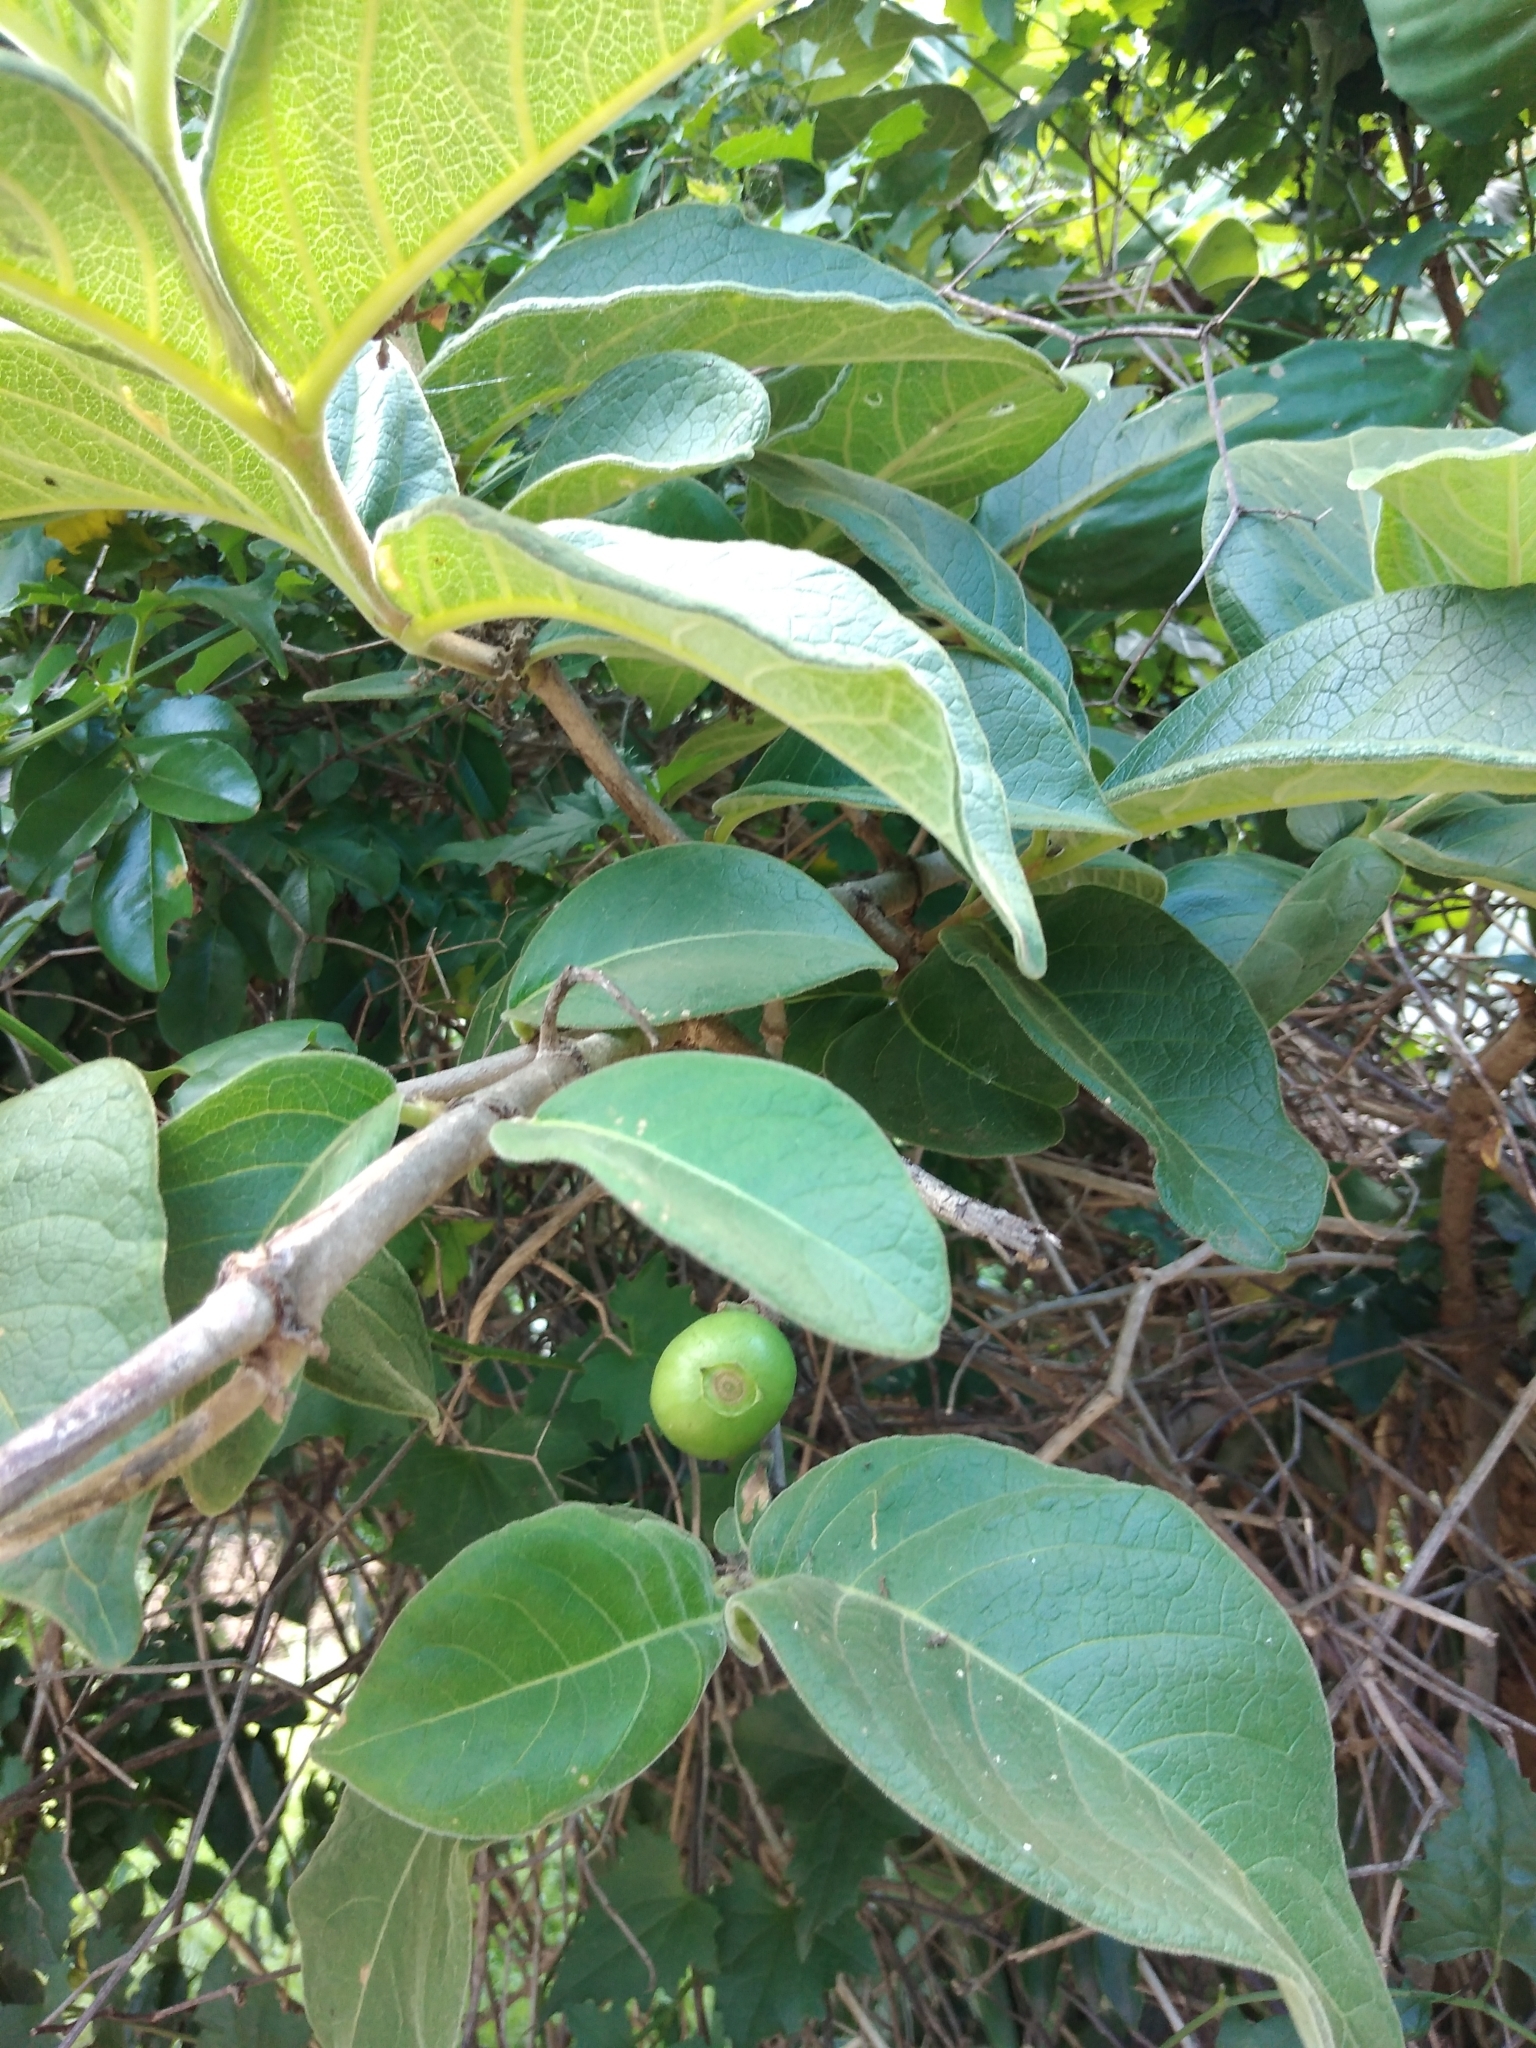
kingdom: Plantae
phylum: Tracheophyta
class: Magnoliopsida
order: Gentianales
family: Rubiaceae
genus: Vangueria
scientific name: Vangueria infausta
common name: Medlar
